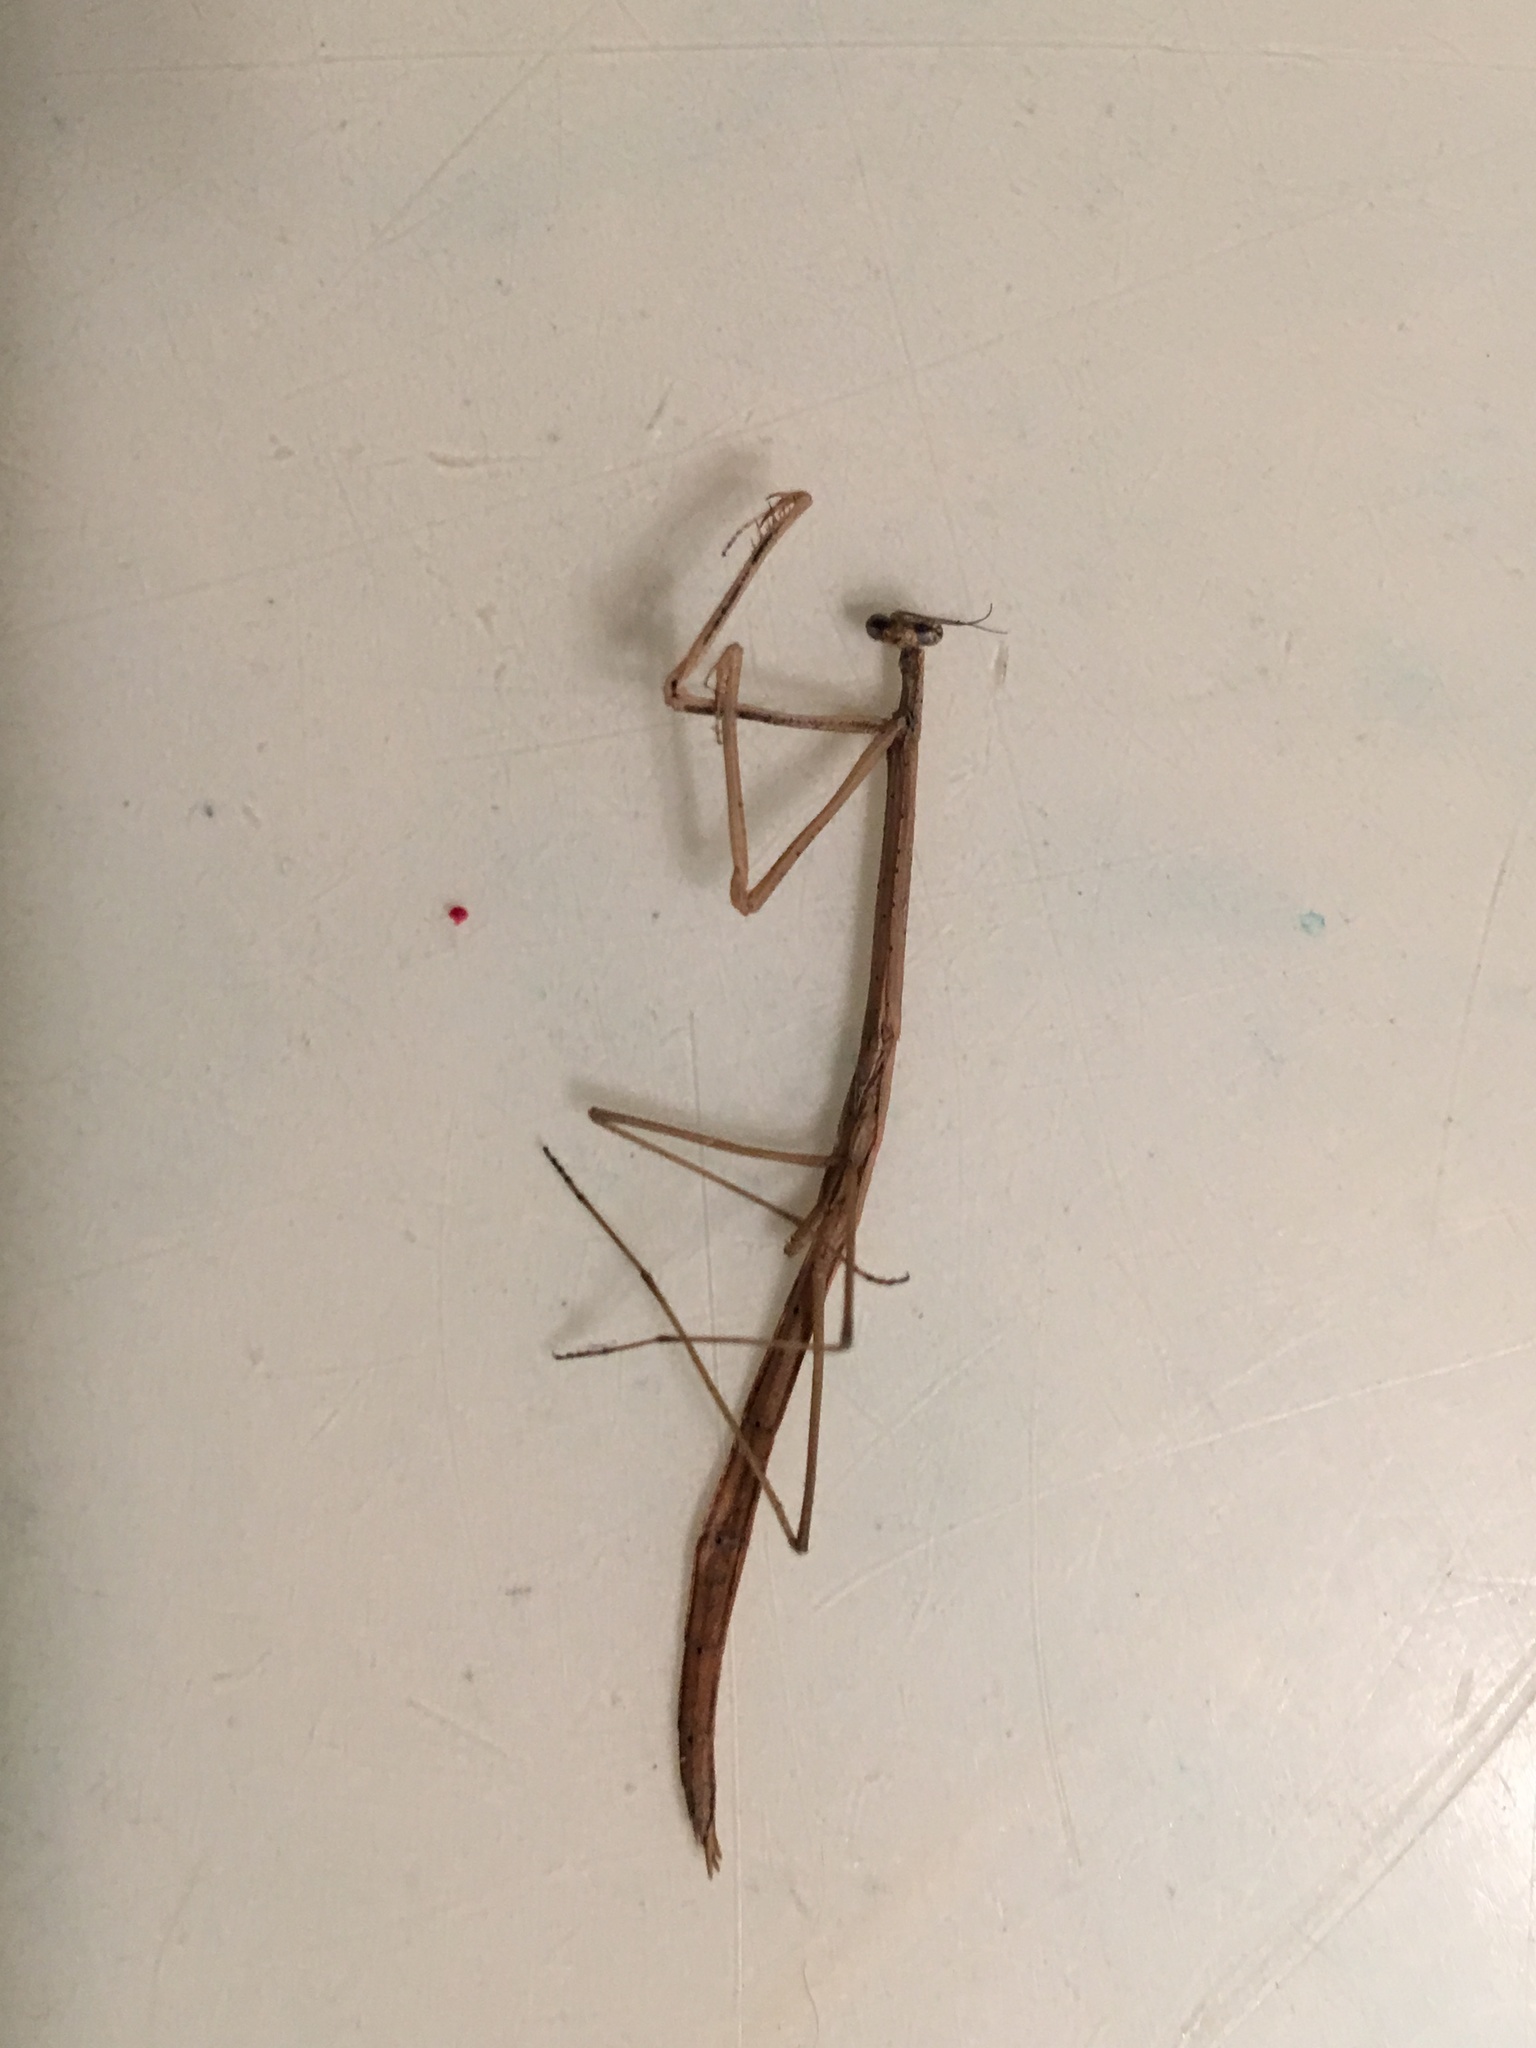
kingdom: Animalia
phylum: Arthropoda
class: Insecta
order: Mantodea
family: Thespidae
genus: Thesprotia
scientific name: Thesprotia graminis
